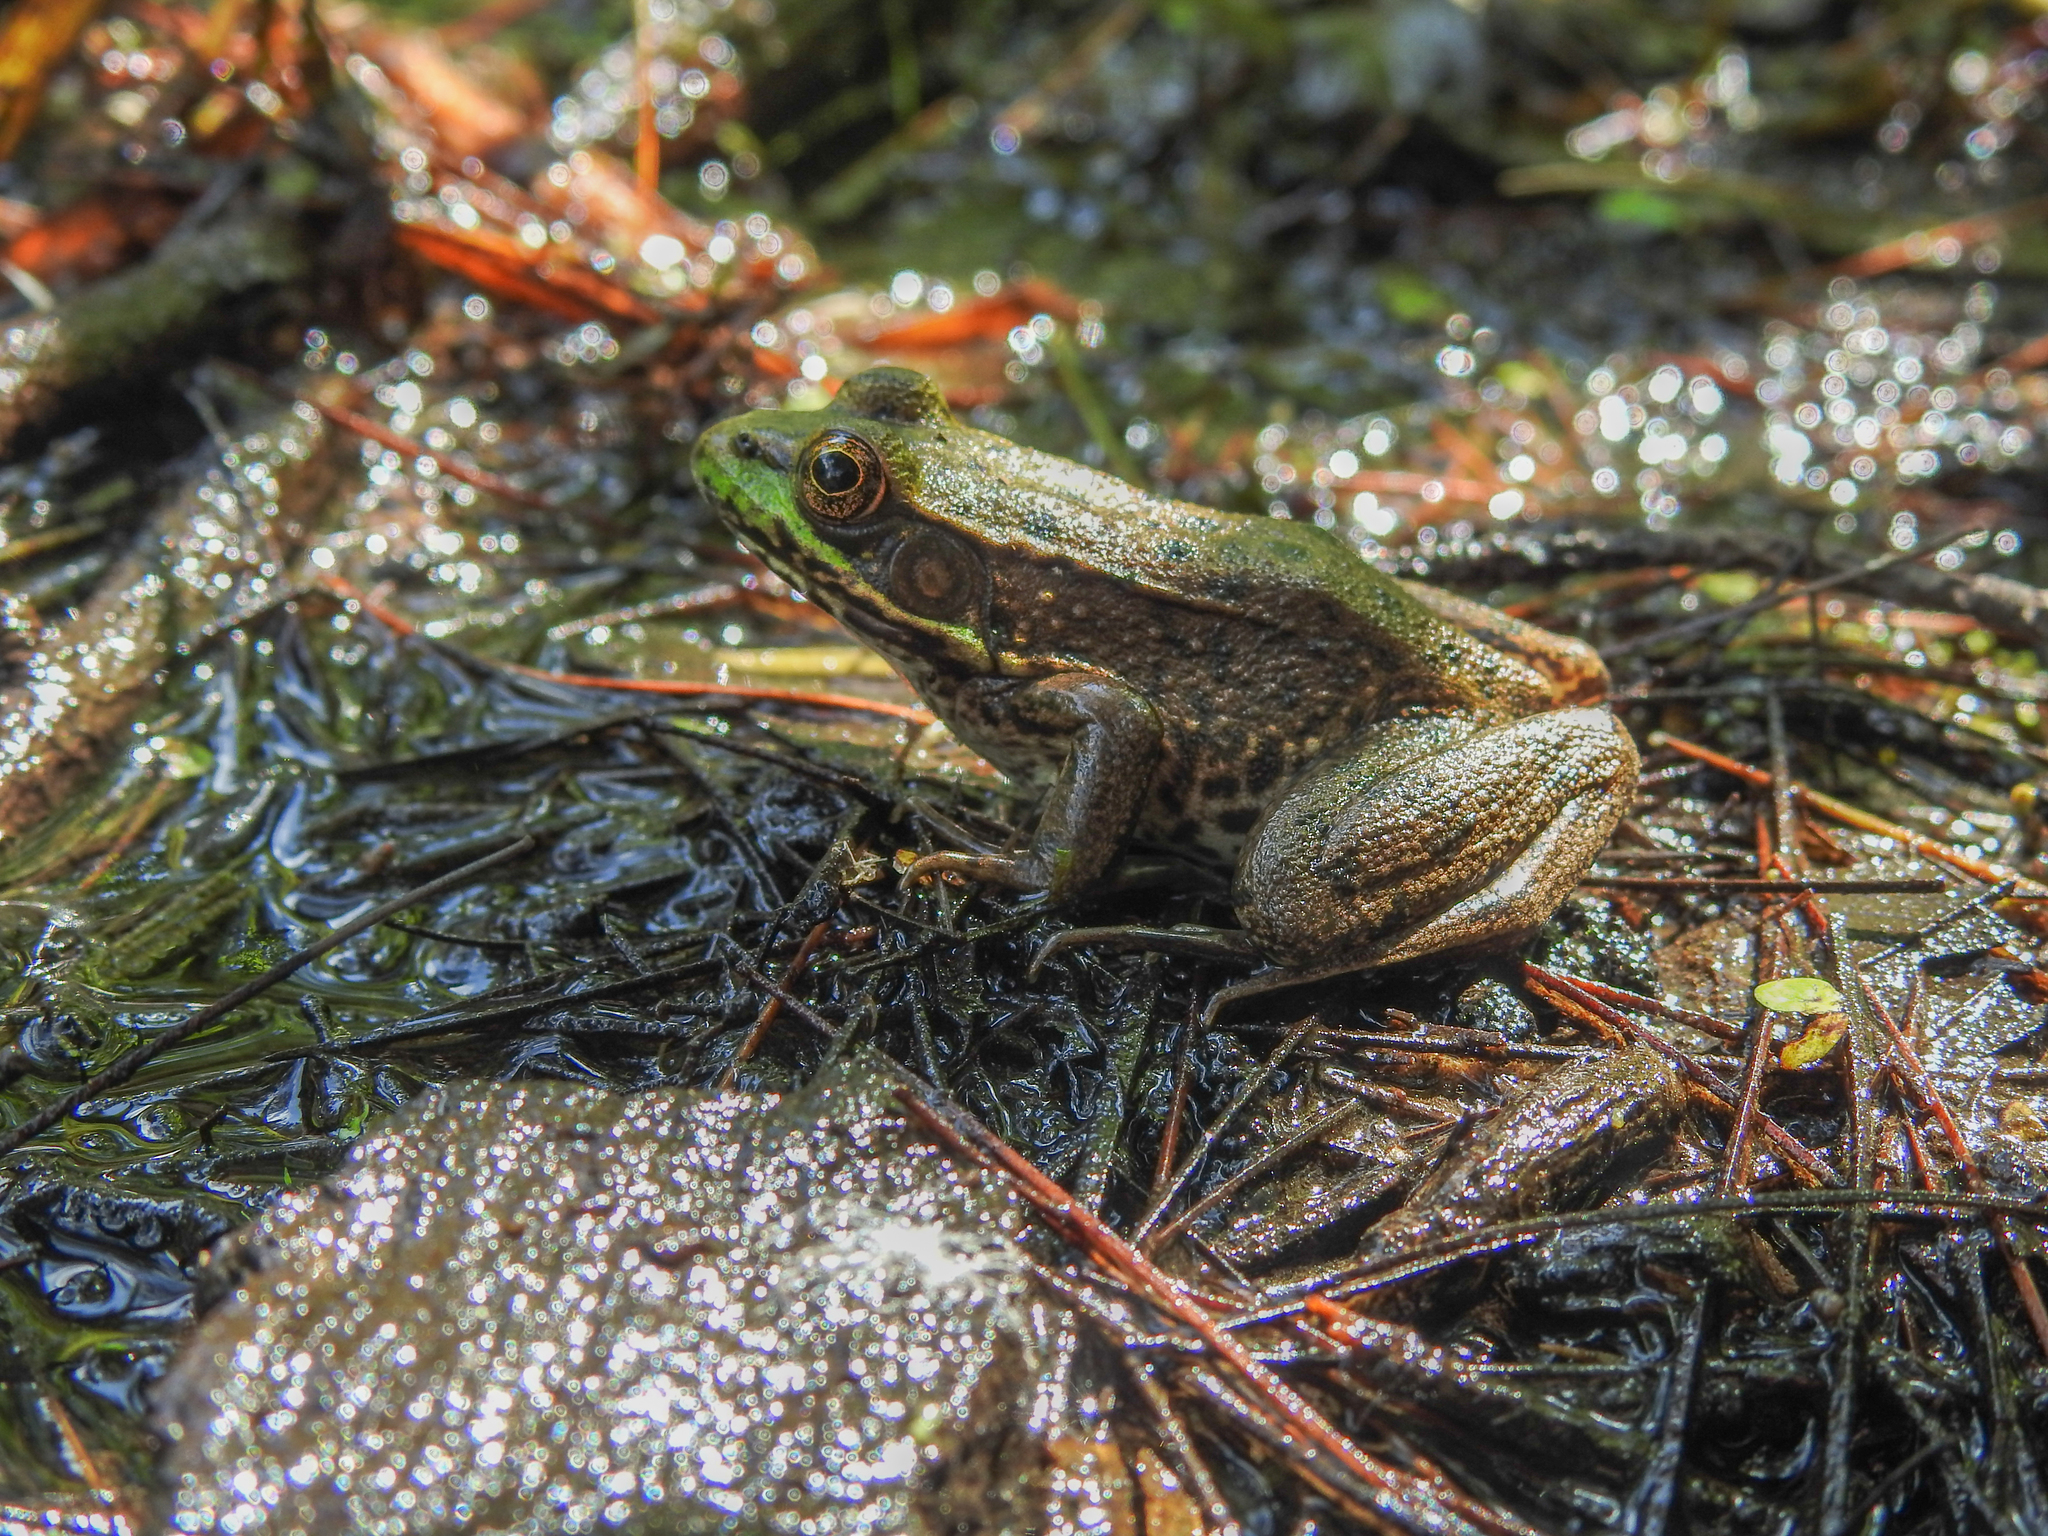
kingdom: Animalia
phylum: Chordata
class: Amphibia
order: Anura
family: Ranidae
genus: Lithobates
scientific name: Lithobates clamitans
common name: Green frog
